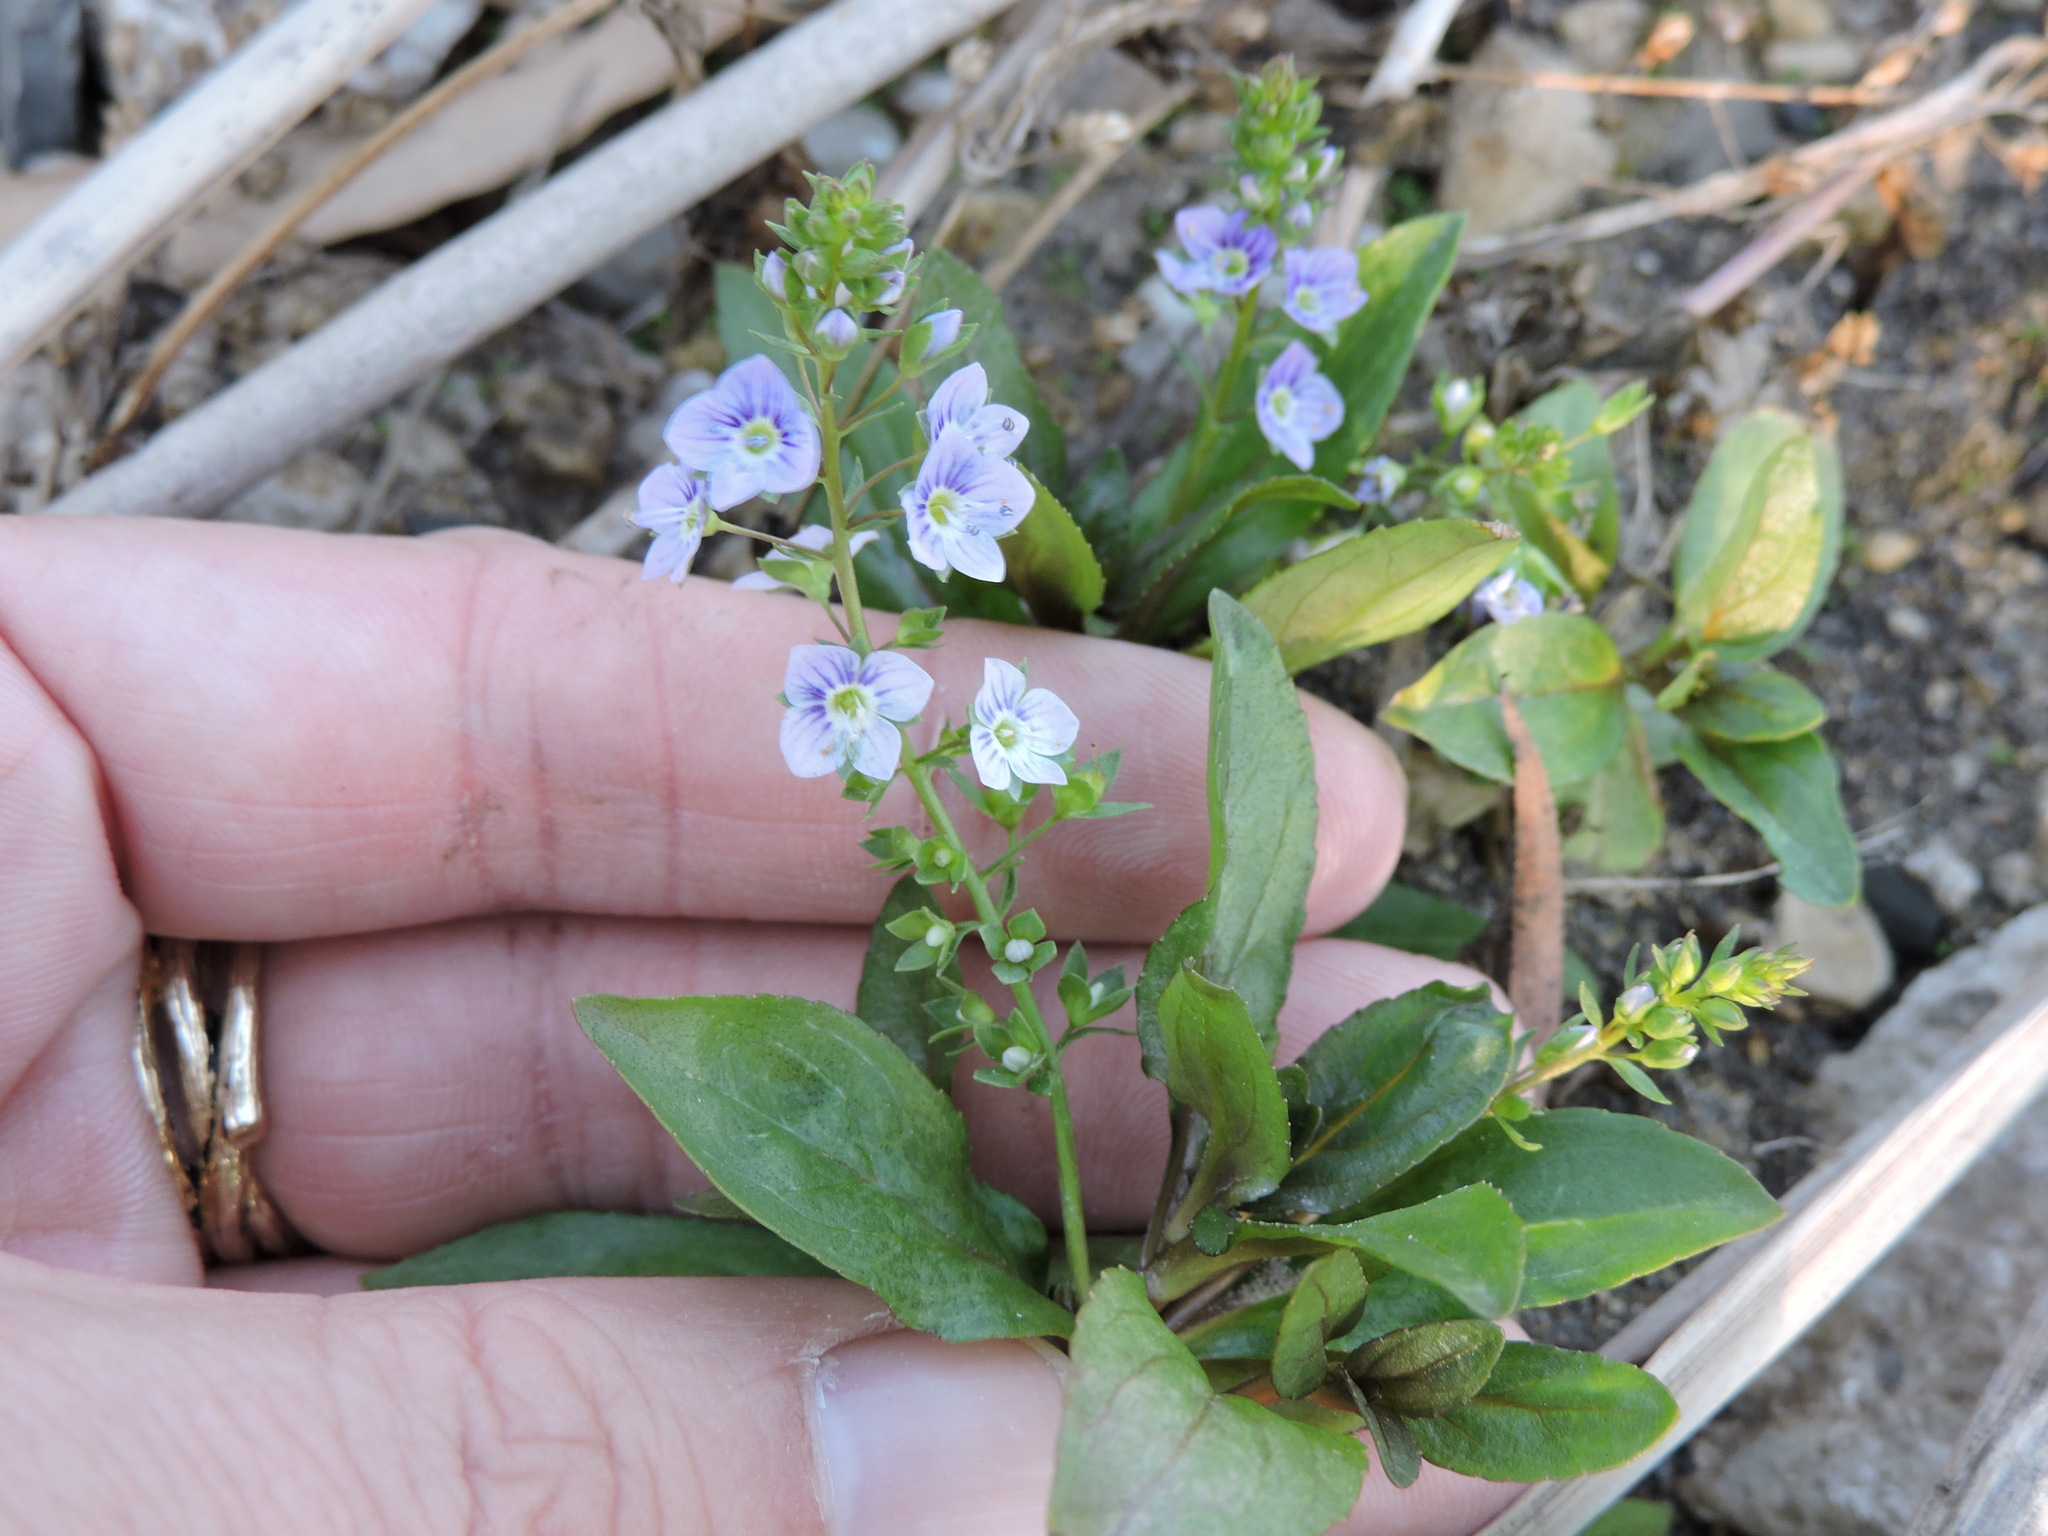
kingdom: Plantae
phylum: Tracheophyta
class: Magnoliopsida
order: Lamiales
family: Plantaginaceae
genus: Veronica
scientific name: Veronica anagallis-aquatica
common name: Water speedwell
